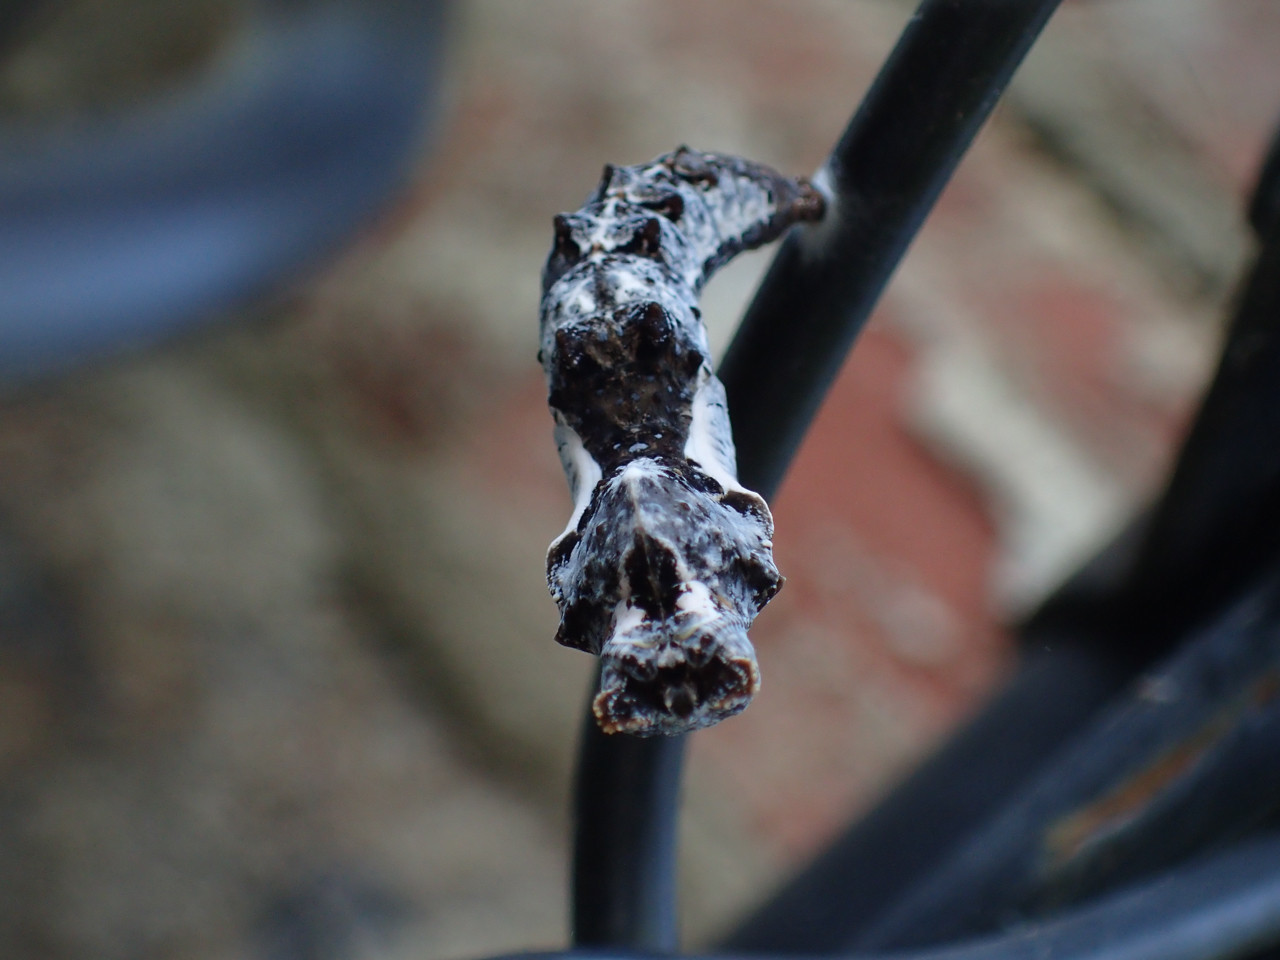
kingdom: Animalia
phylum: Arthropoda
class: Insecta
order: Lepidoptera
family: Nymphalidae
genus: Dione
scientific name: Dione vanillae
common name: Gulf fritillary
